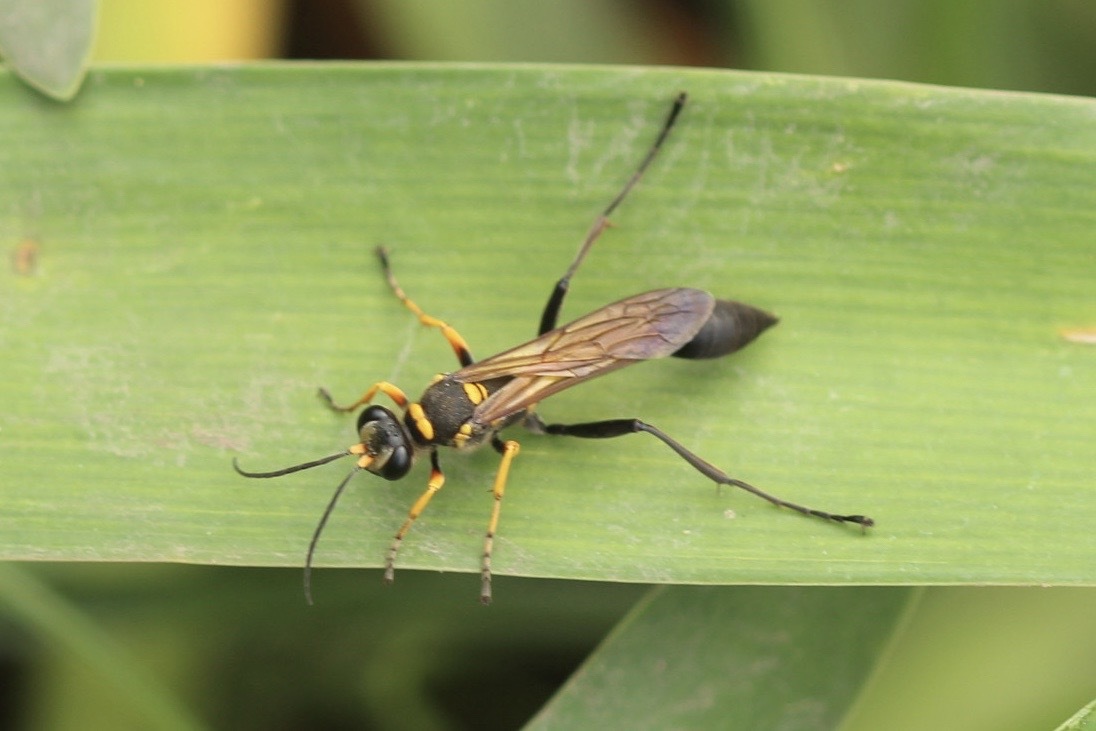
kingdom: Animalia
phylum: Arthropoda
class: Insecta
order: Hymenoptera
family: Sphecidae
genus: Sceliphron
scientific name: Sceliphron asiaticum
